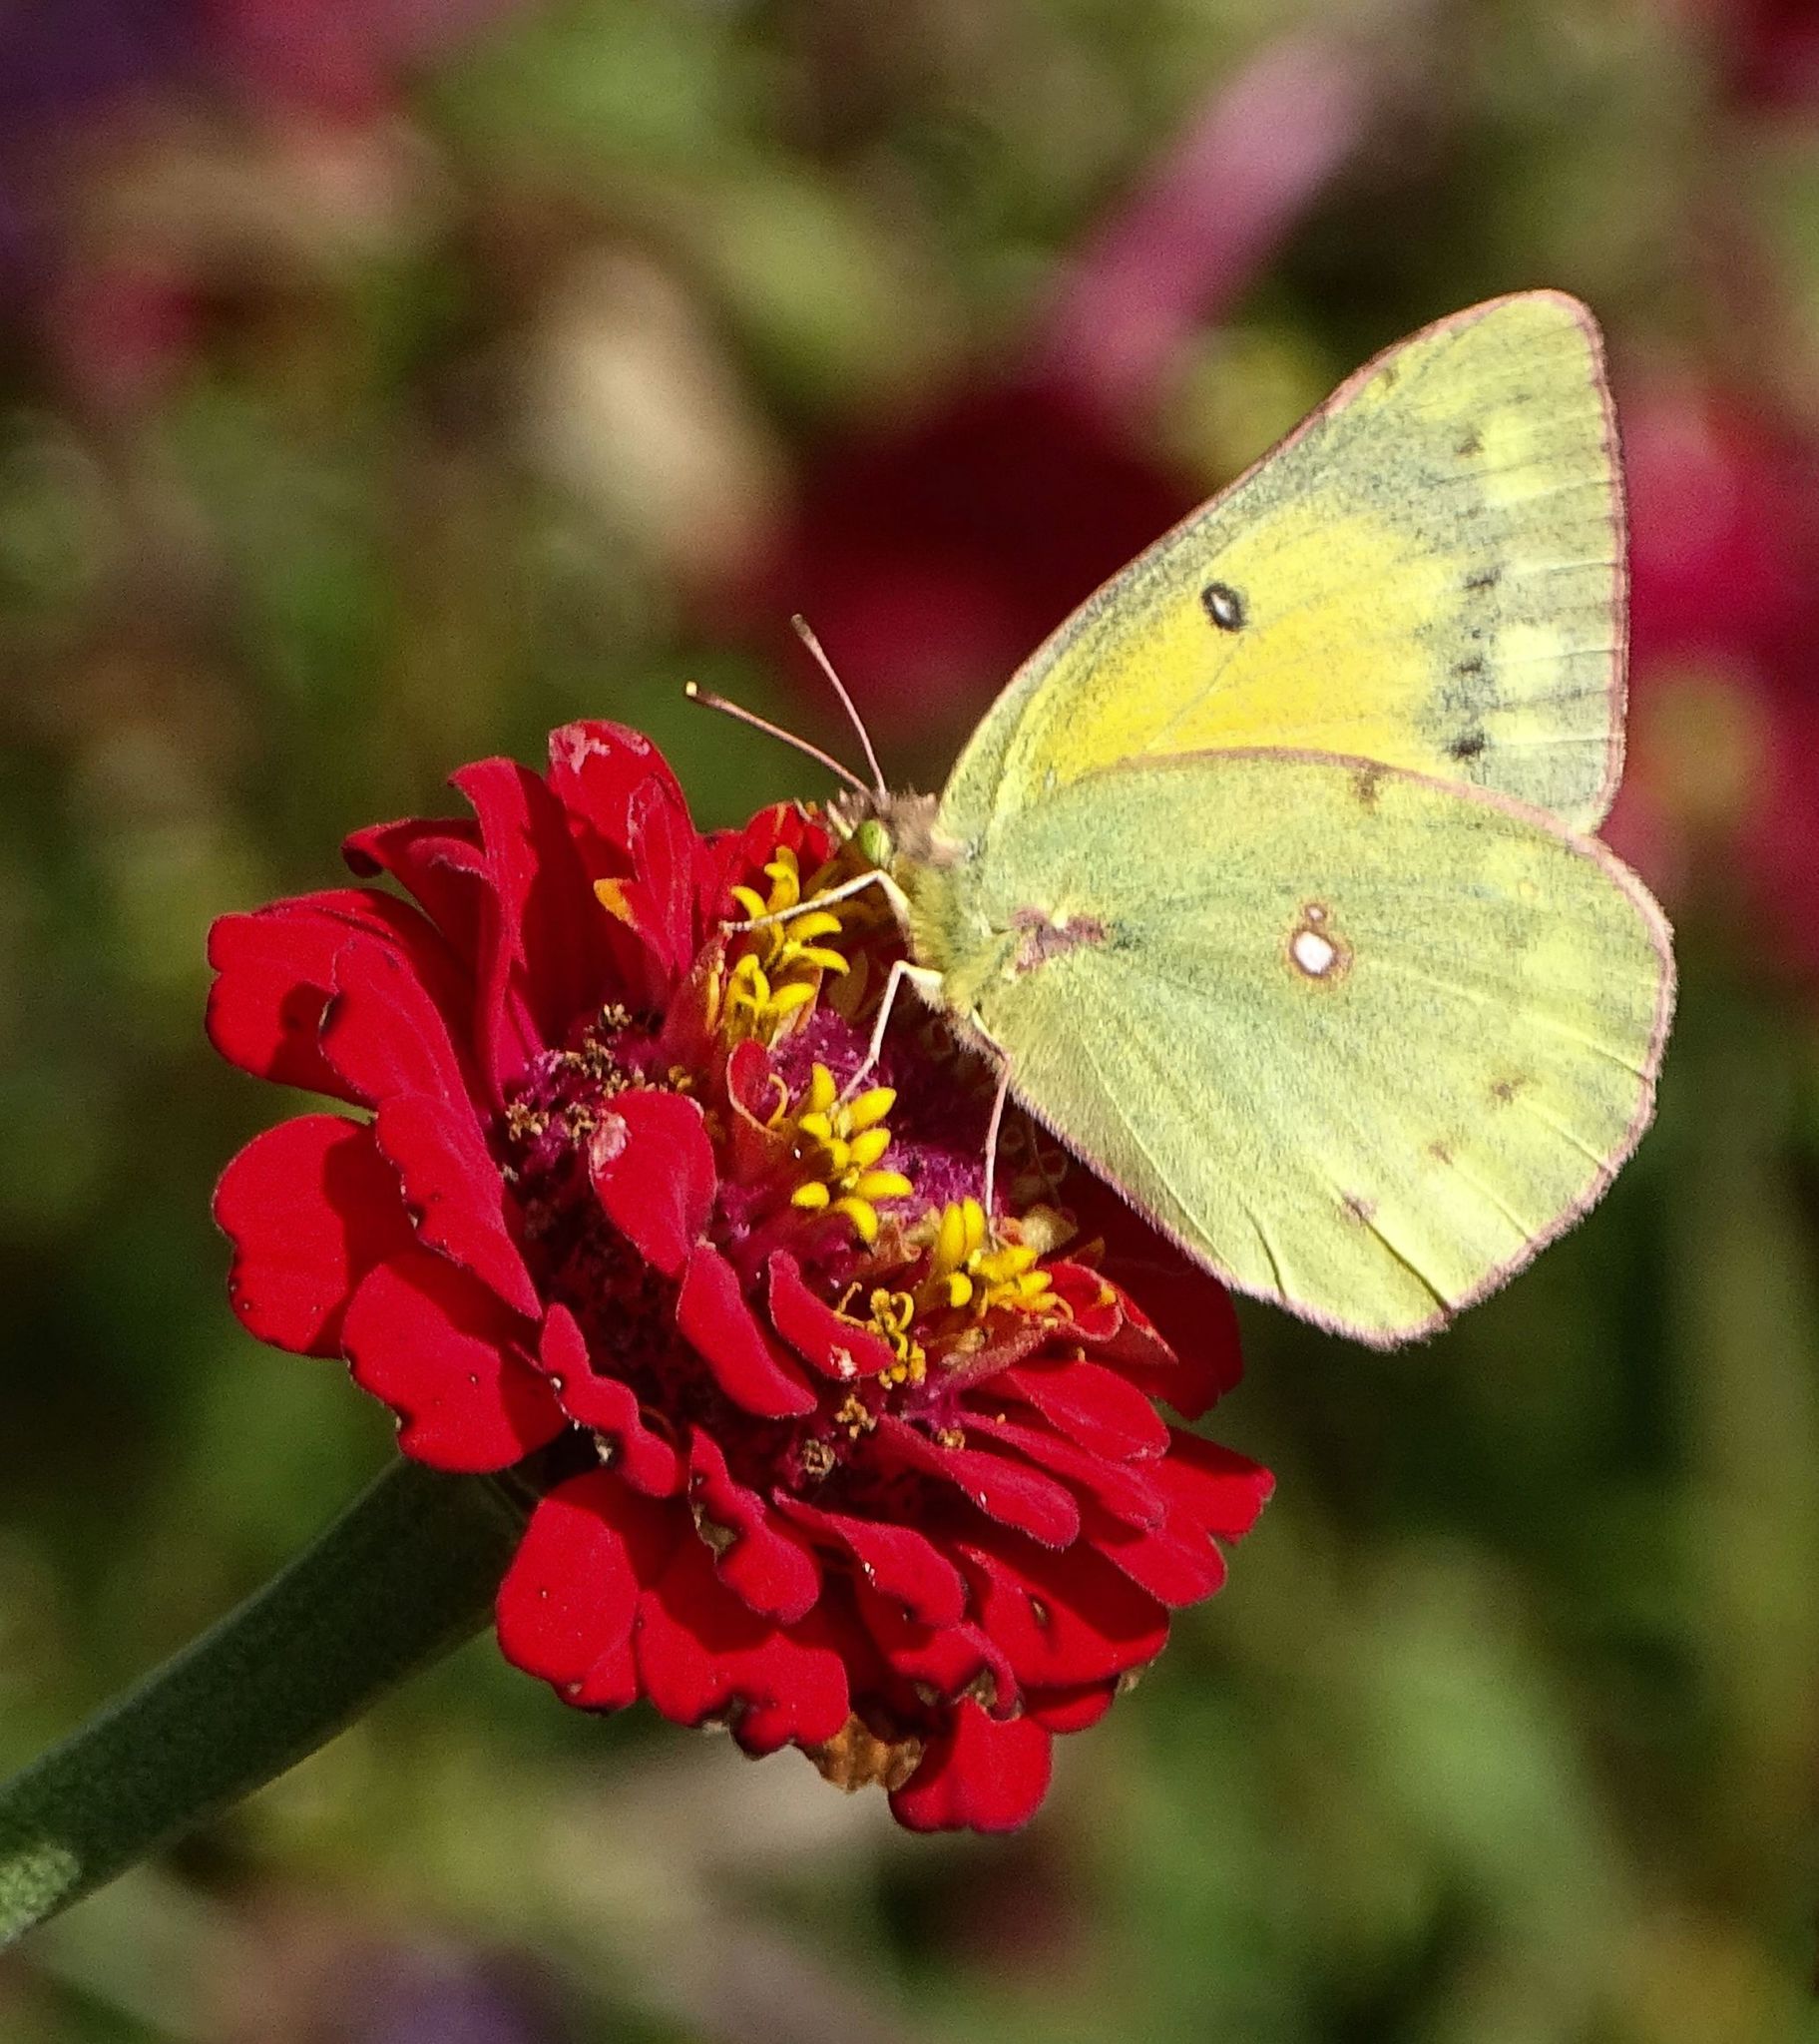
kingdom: Animalia
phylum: Arthropoda
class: Insecta
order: Lepidoptera
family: Pieridae
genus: Colias
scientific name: Colias eurytheme
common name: Alfalfa butterfly
